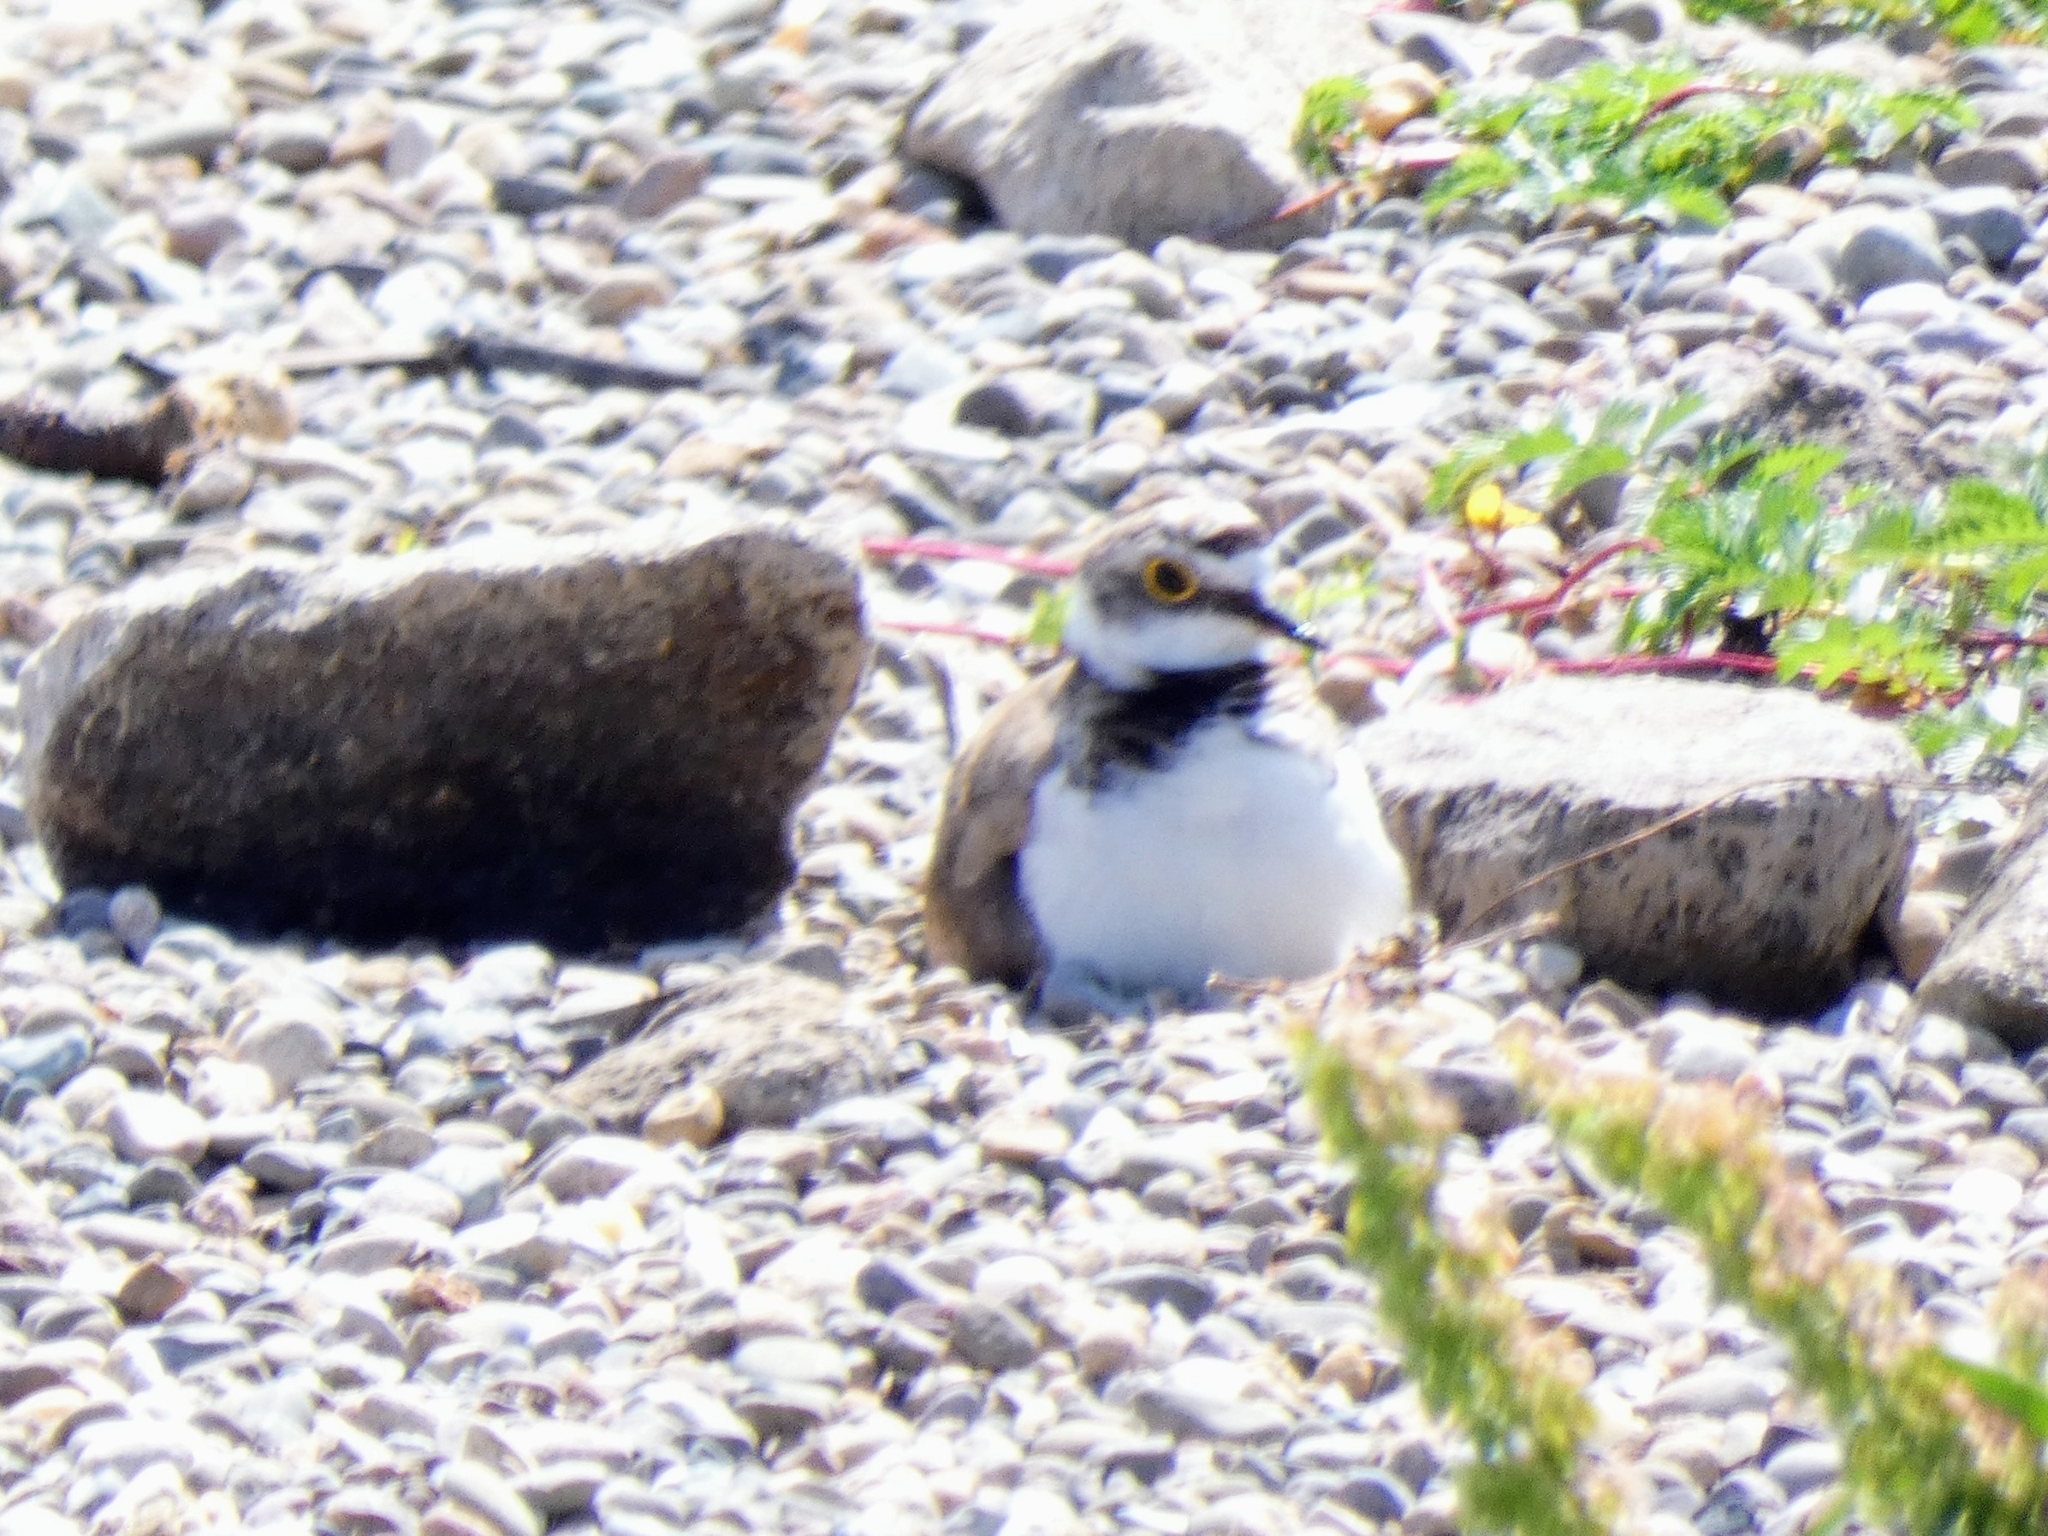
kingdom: Animalia
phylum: Chordata
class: Aves
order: Charadriiformes
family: Charadriidae
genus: Charadrius
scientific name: Charadrius dubius
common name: Little ringed plover
